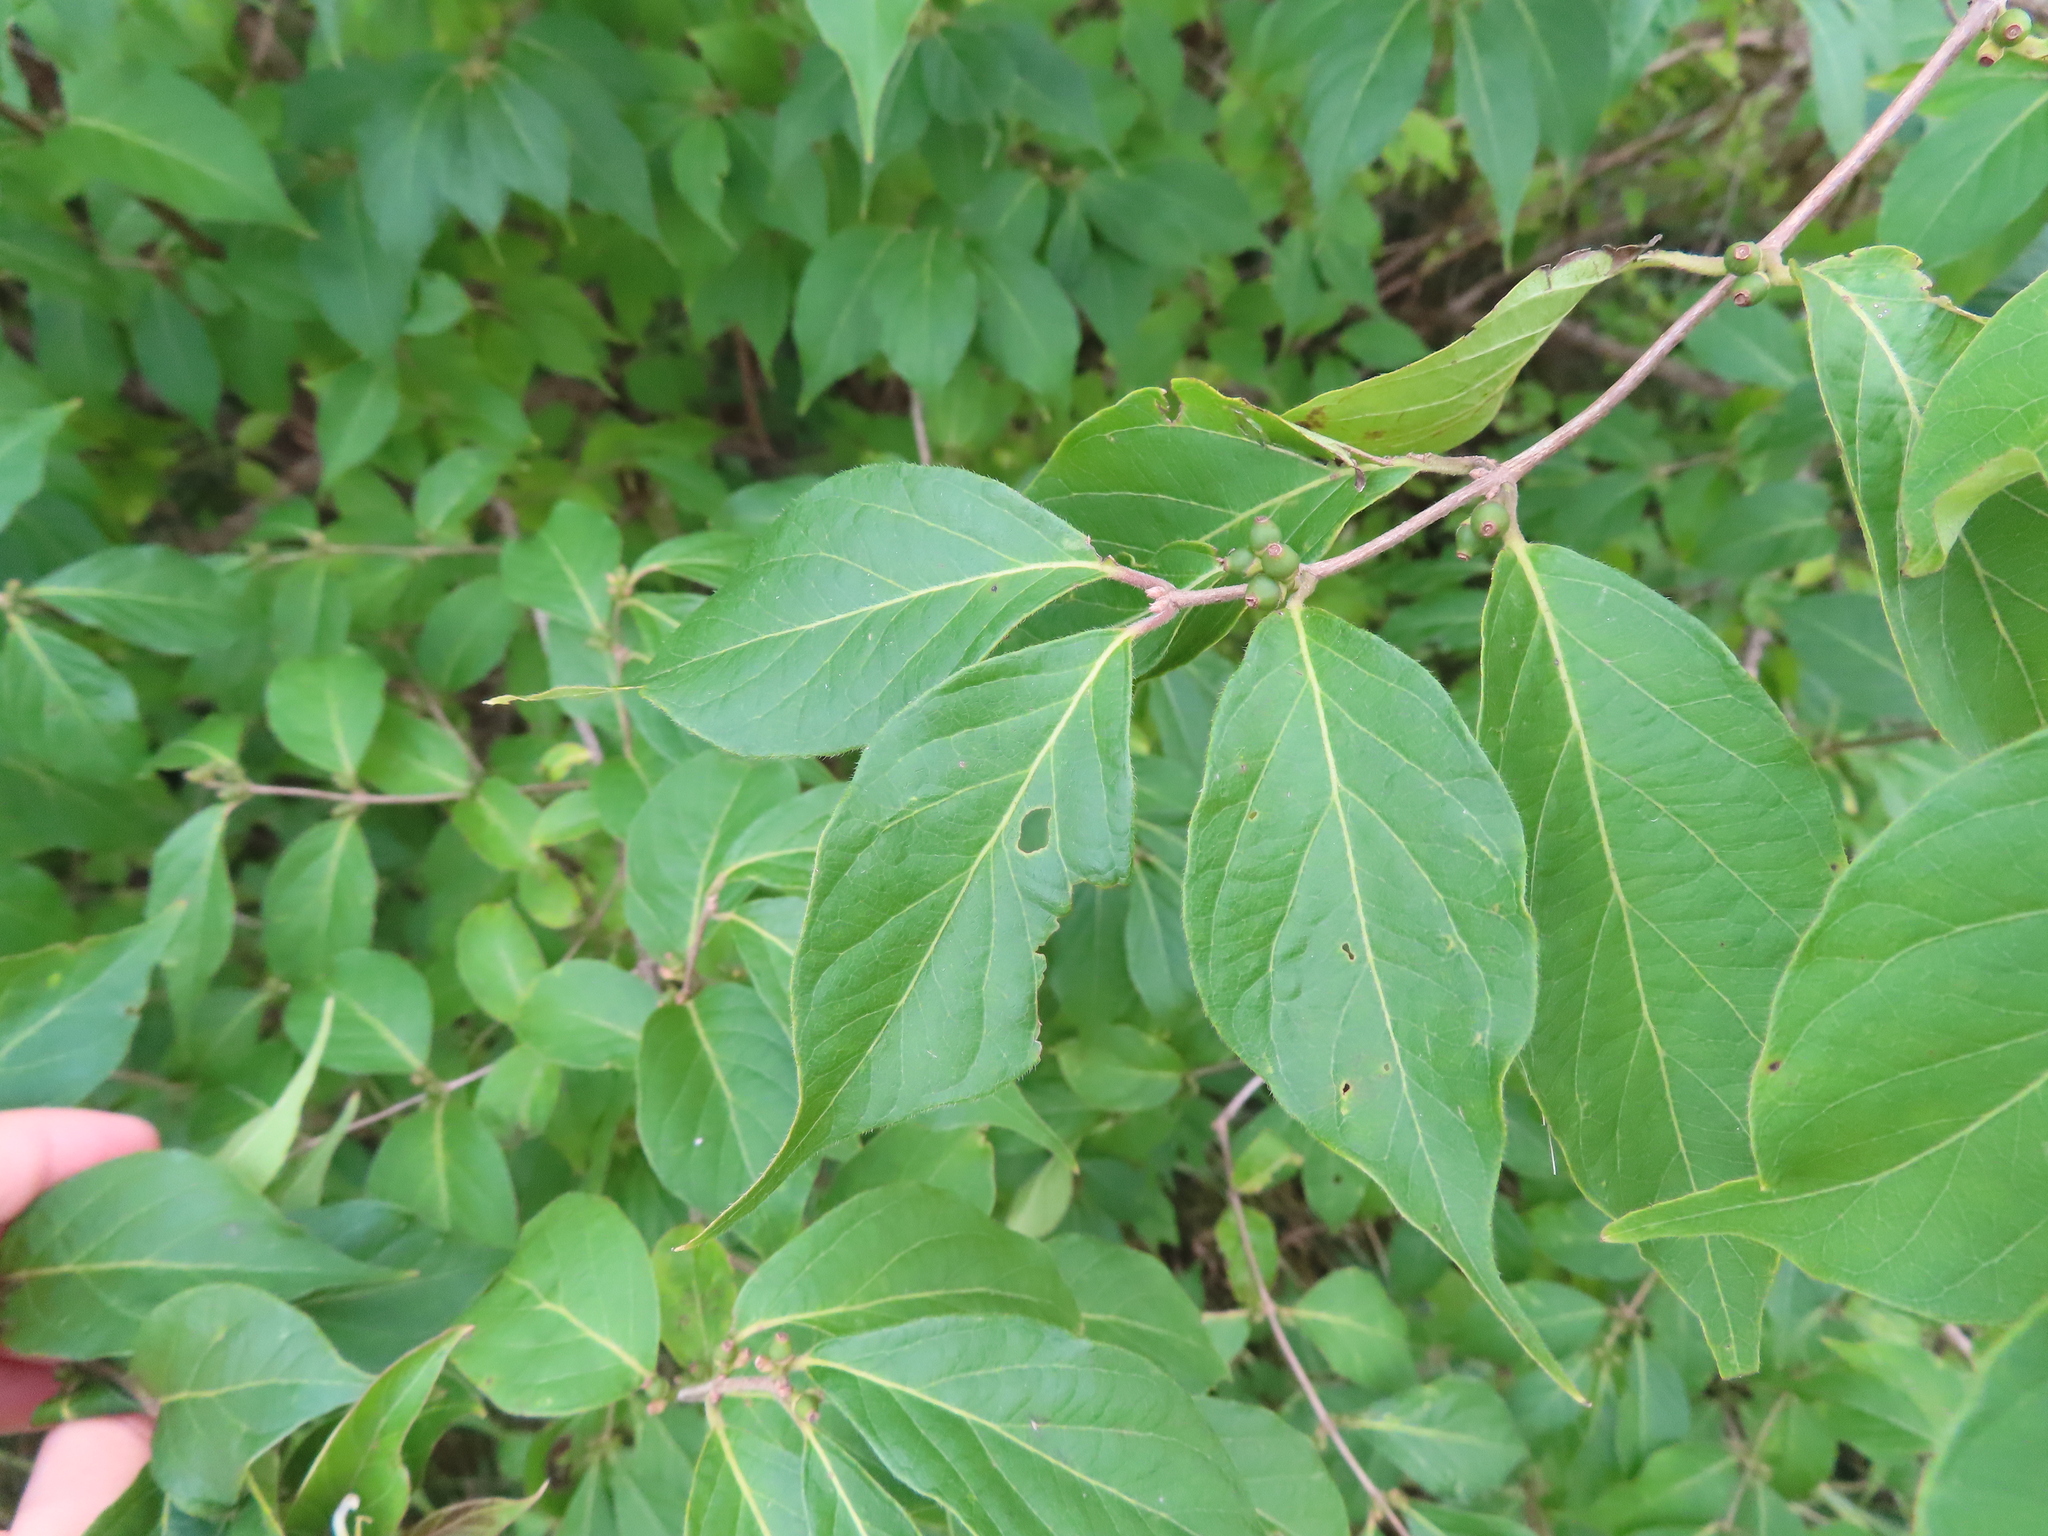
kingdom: Plantae
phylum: Tracheophyta
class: Magnoliopsida
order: Dipsacales
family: Caprifoliaceae
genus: Lonicera
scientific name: Lonicera maackii
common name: Amur honeysuckle
